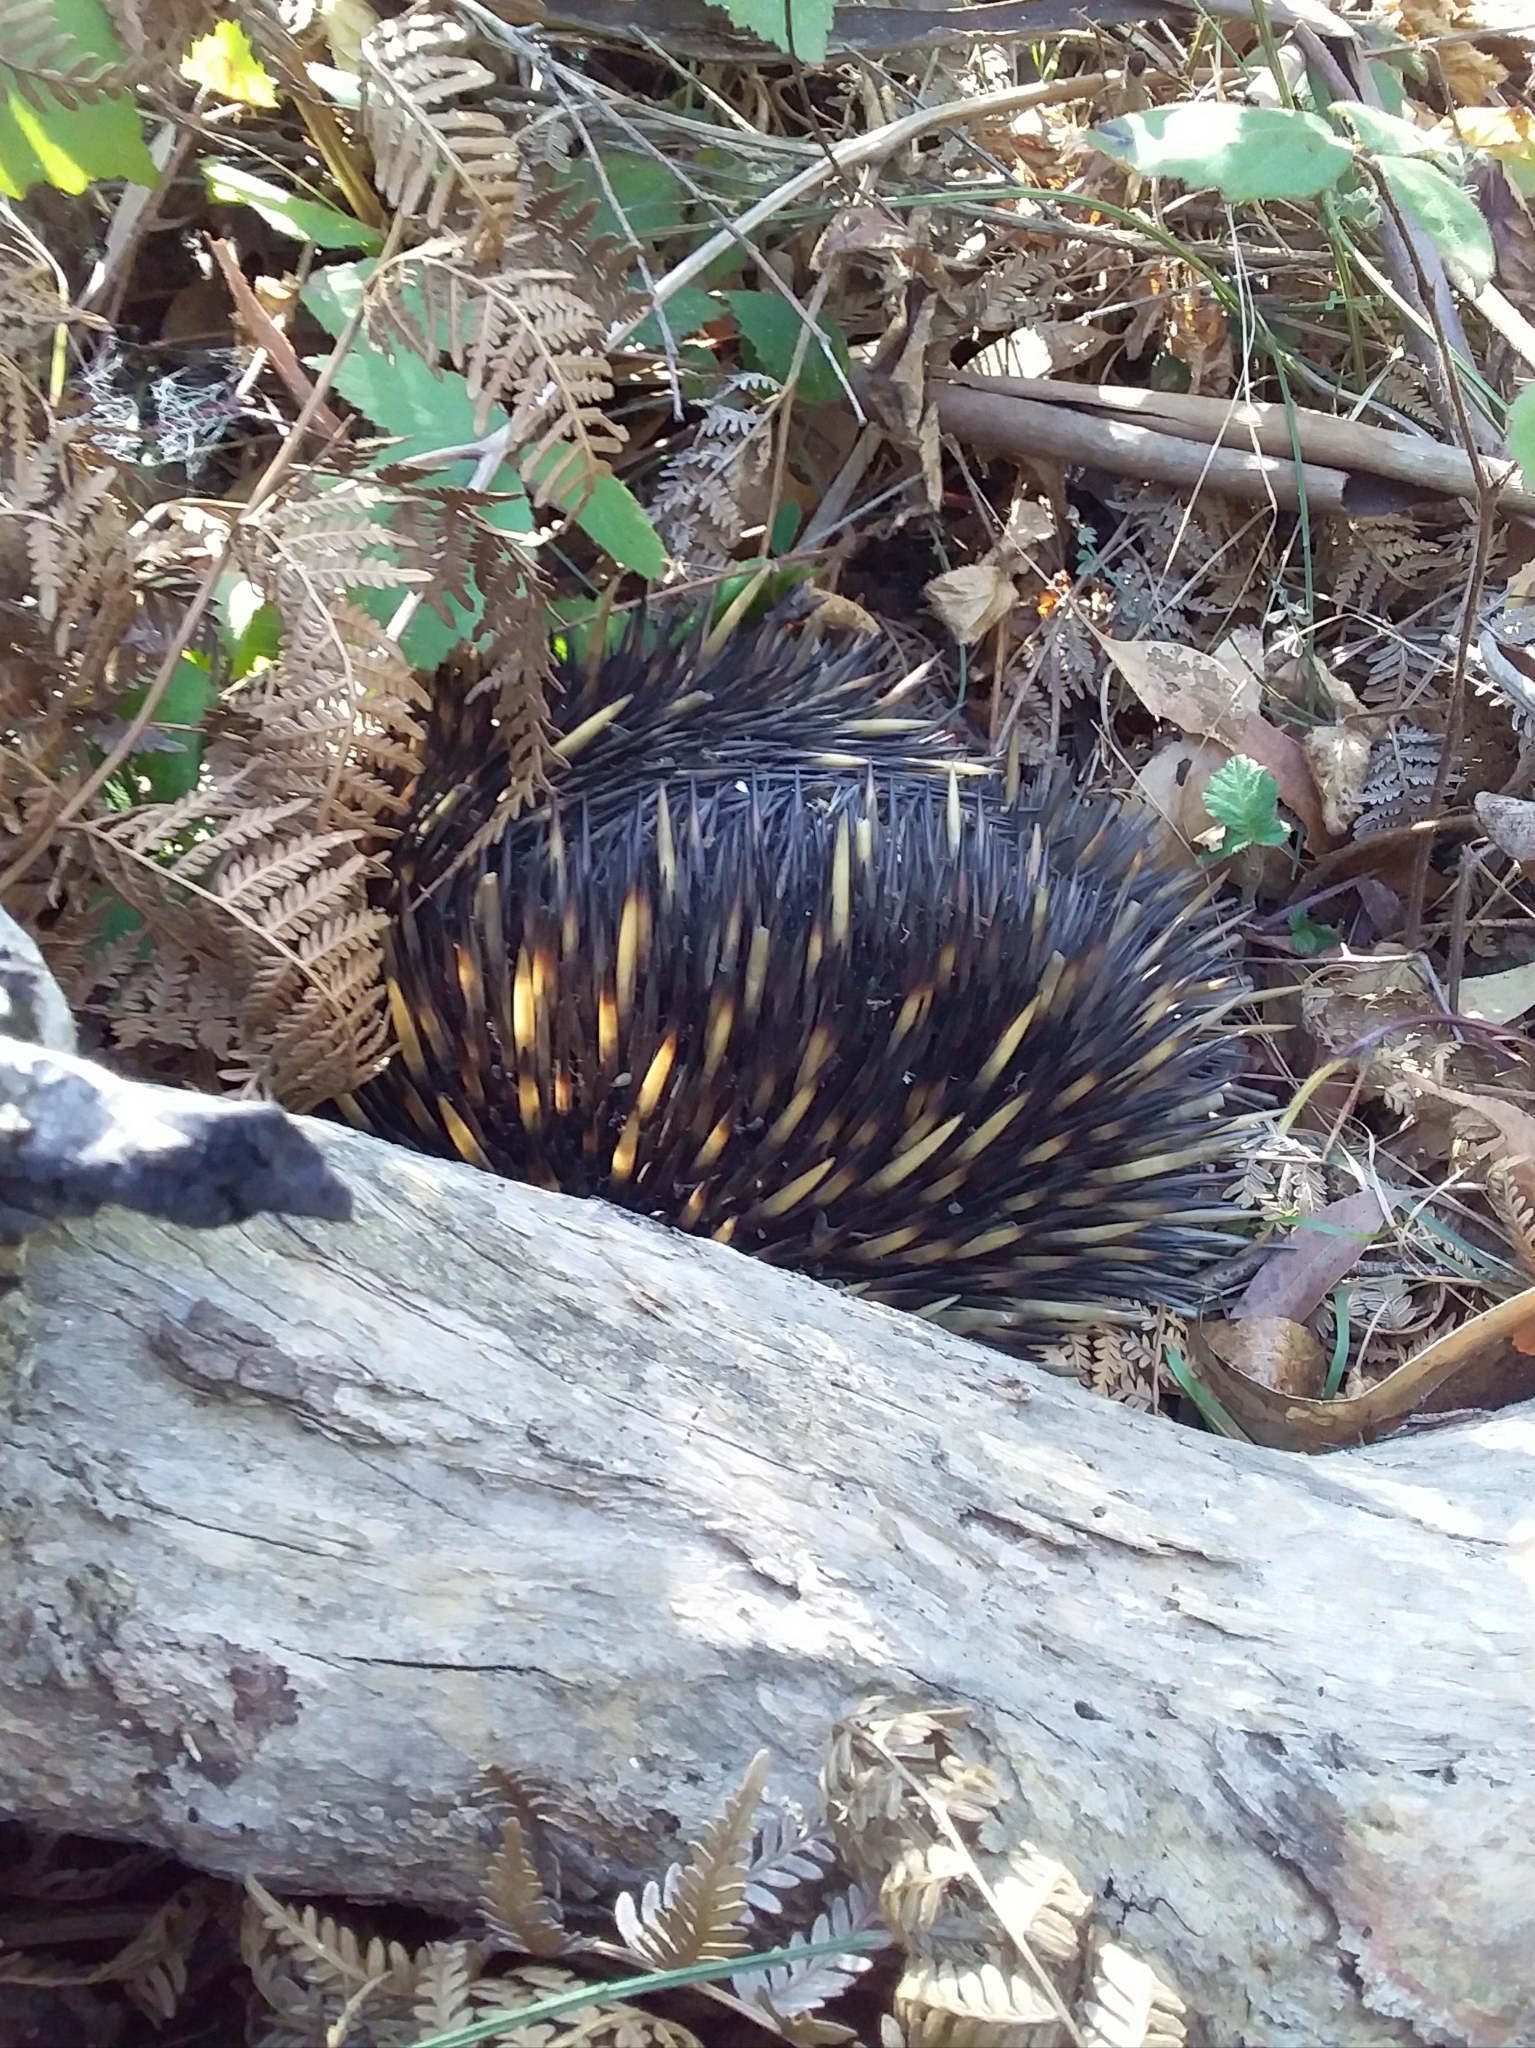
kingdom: Animalia
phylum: Chordata
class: Mammalia
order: Monotremata
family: Tachyglossidae
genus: Tachyglossus
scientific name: Tachyglossus aculeatus
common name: Short-beaked echidna
